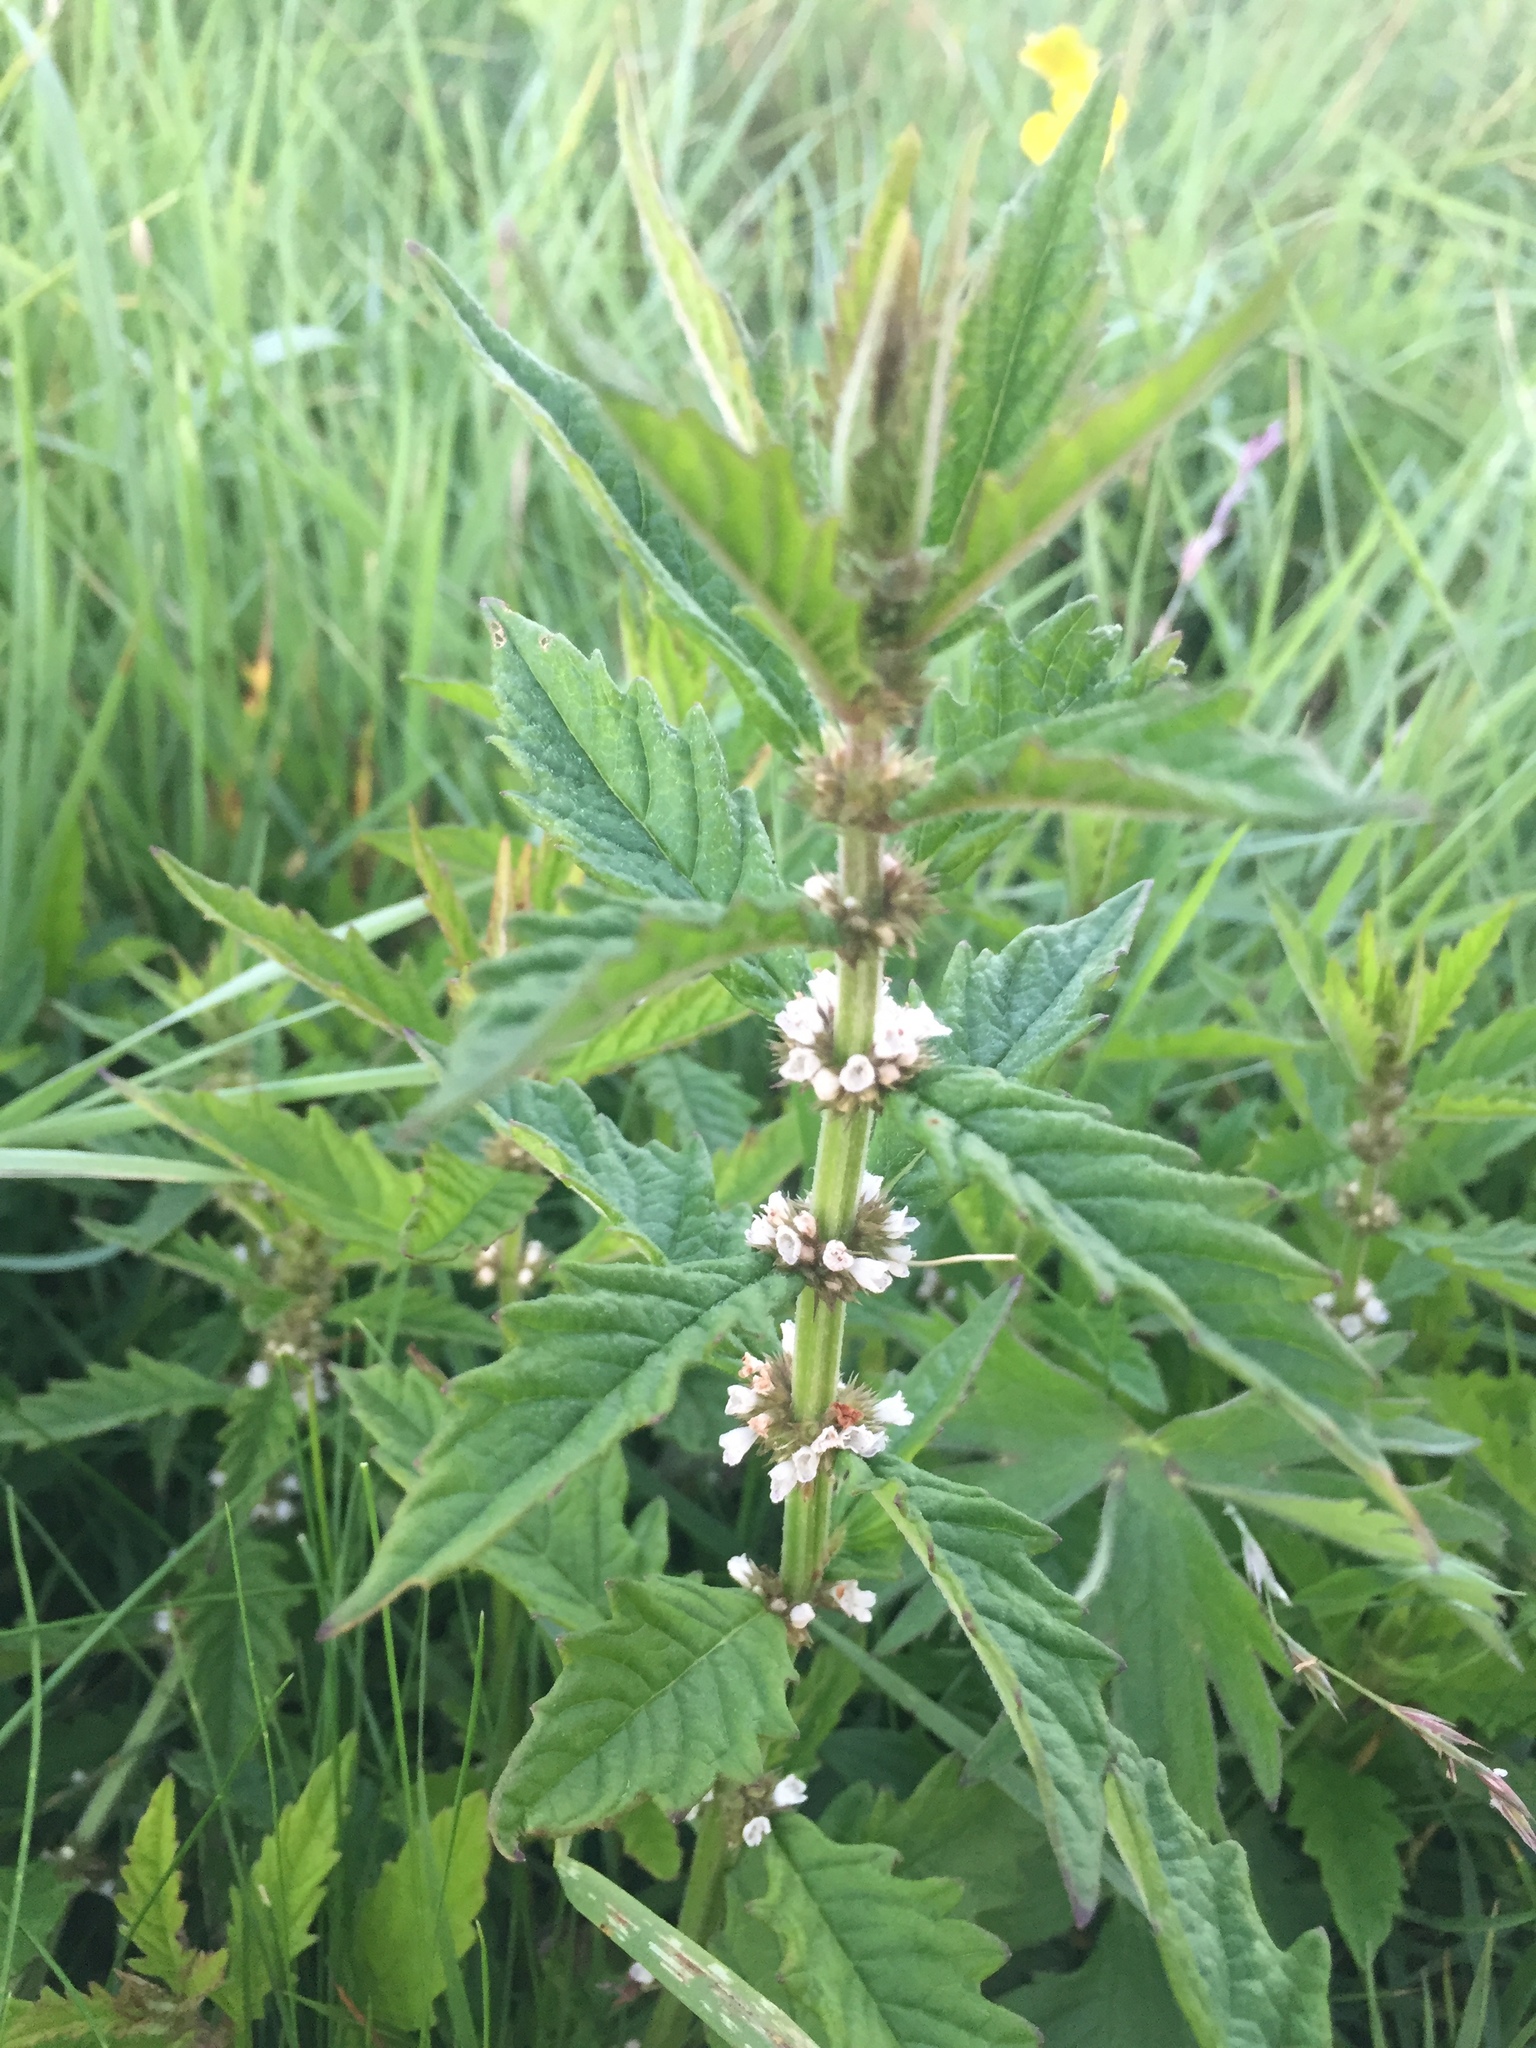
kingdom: Plantae
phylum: Tracheophyta
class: Magnoliopsida
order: Lamiales
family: Lamiaceae
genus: Lycopus
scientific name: Lycopus europaeus
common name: European bugleweed
